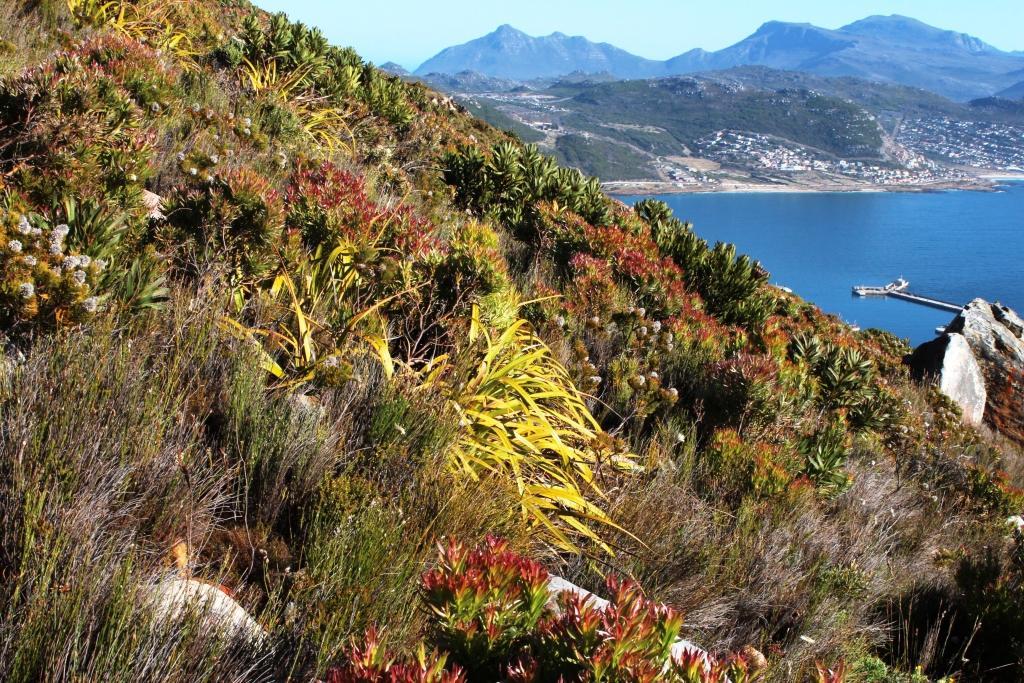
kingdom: Plantae
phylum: Tracheophyta
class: Magnoliopsida
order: Proteales
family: Proteaceae
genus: Leucadendron
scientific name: Leucadendron xanthoconus
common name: Sickle-leaf conebush
